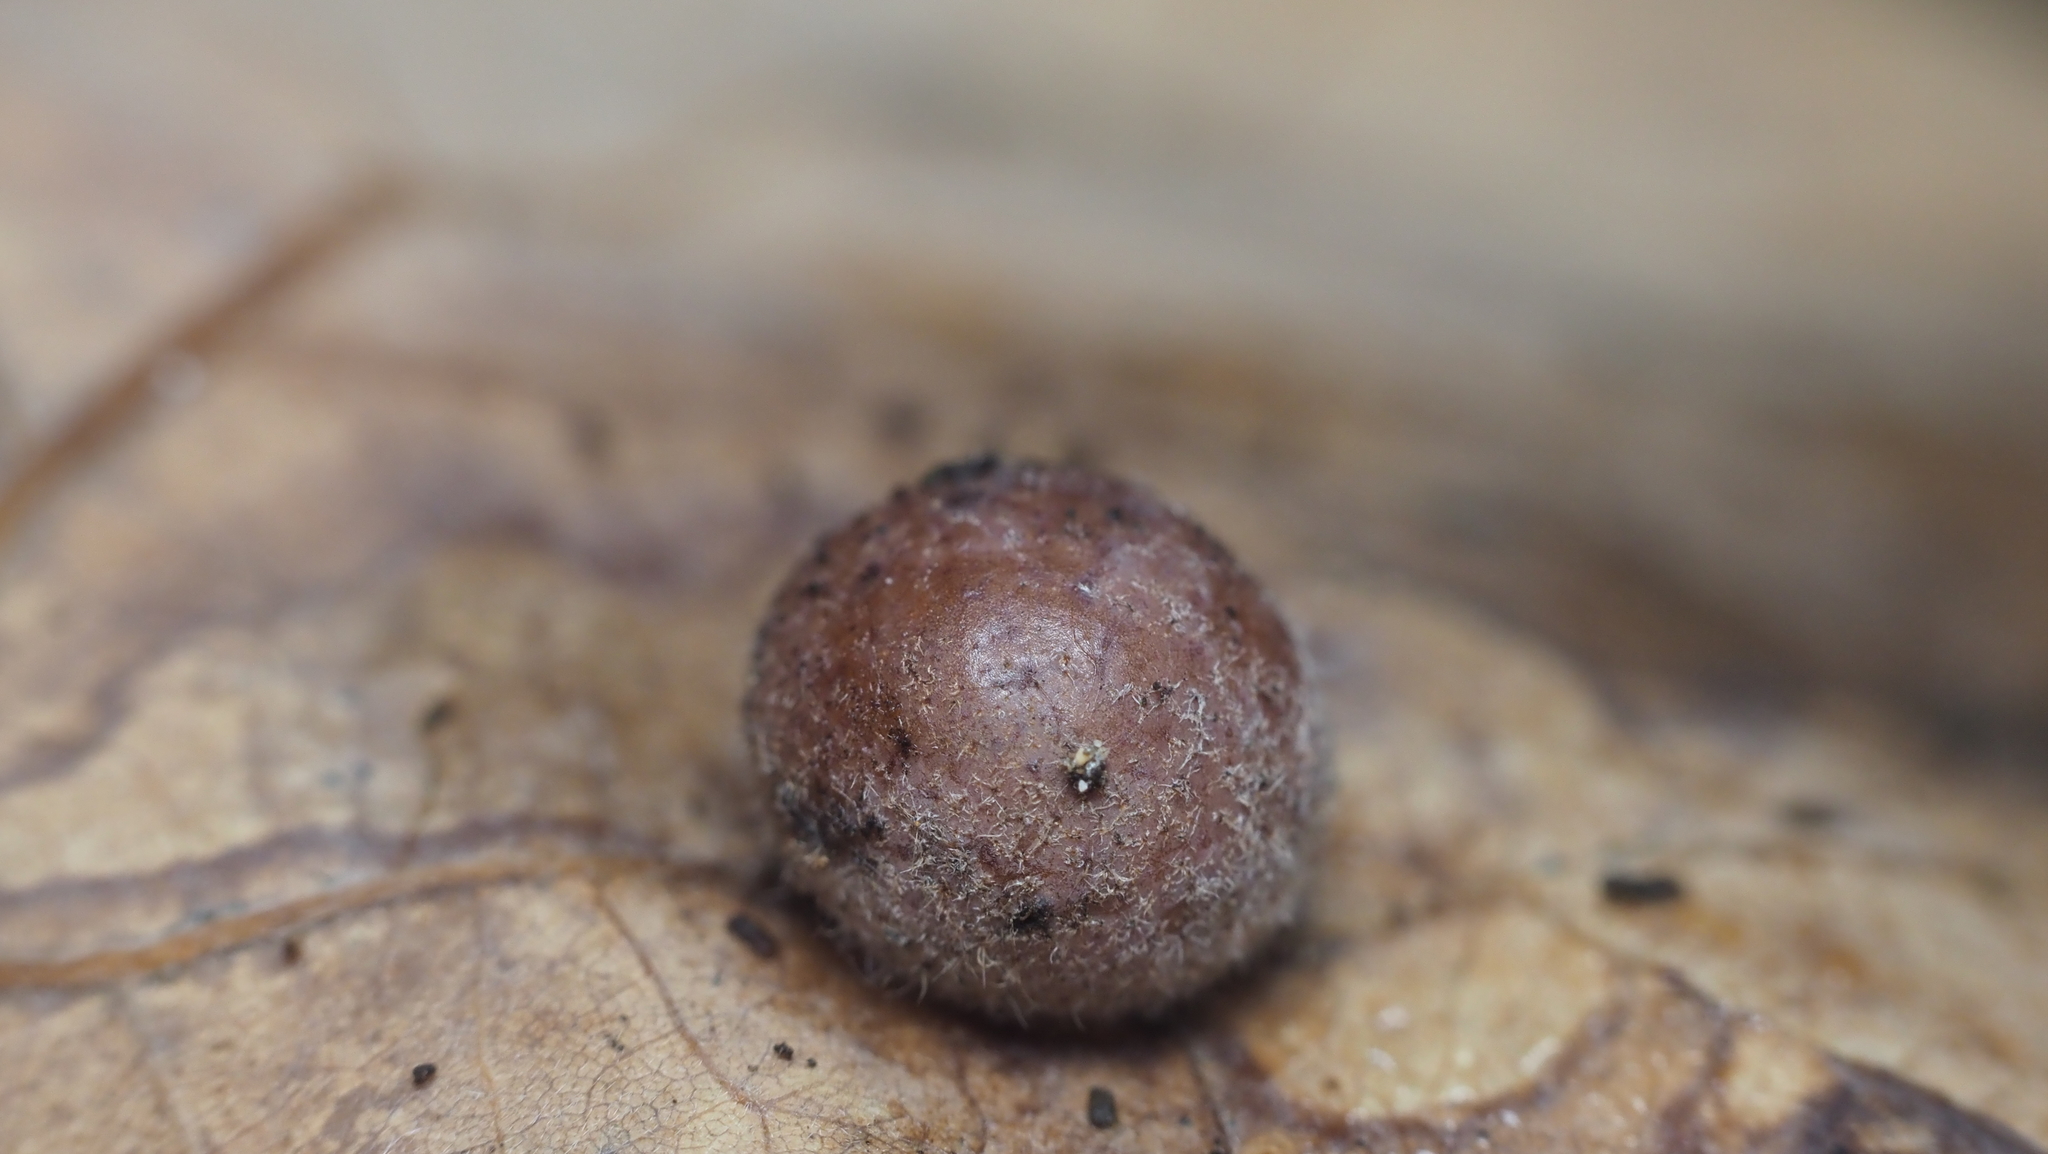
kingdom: Animalia
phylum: Arthropoda
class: Insecta
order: Hymenoptera
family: Cynipidae
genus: Philonix
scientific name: Philonix fulvicollis
